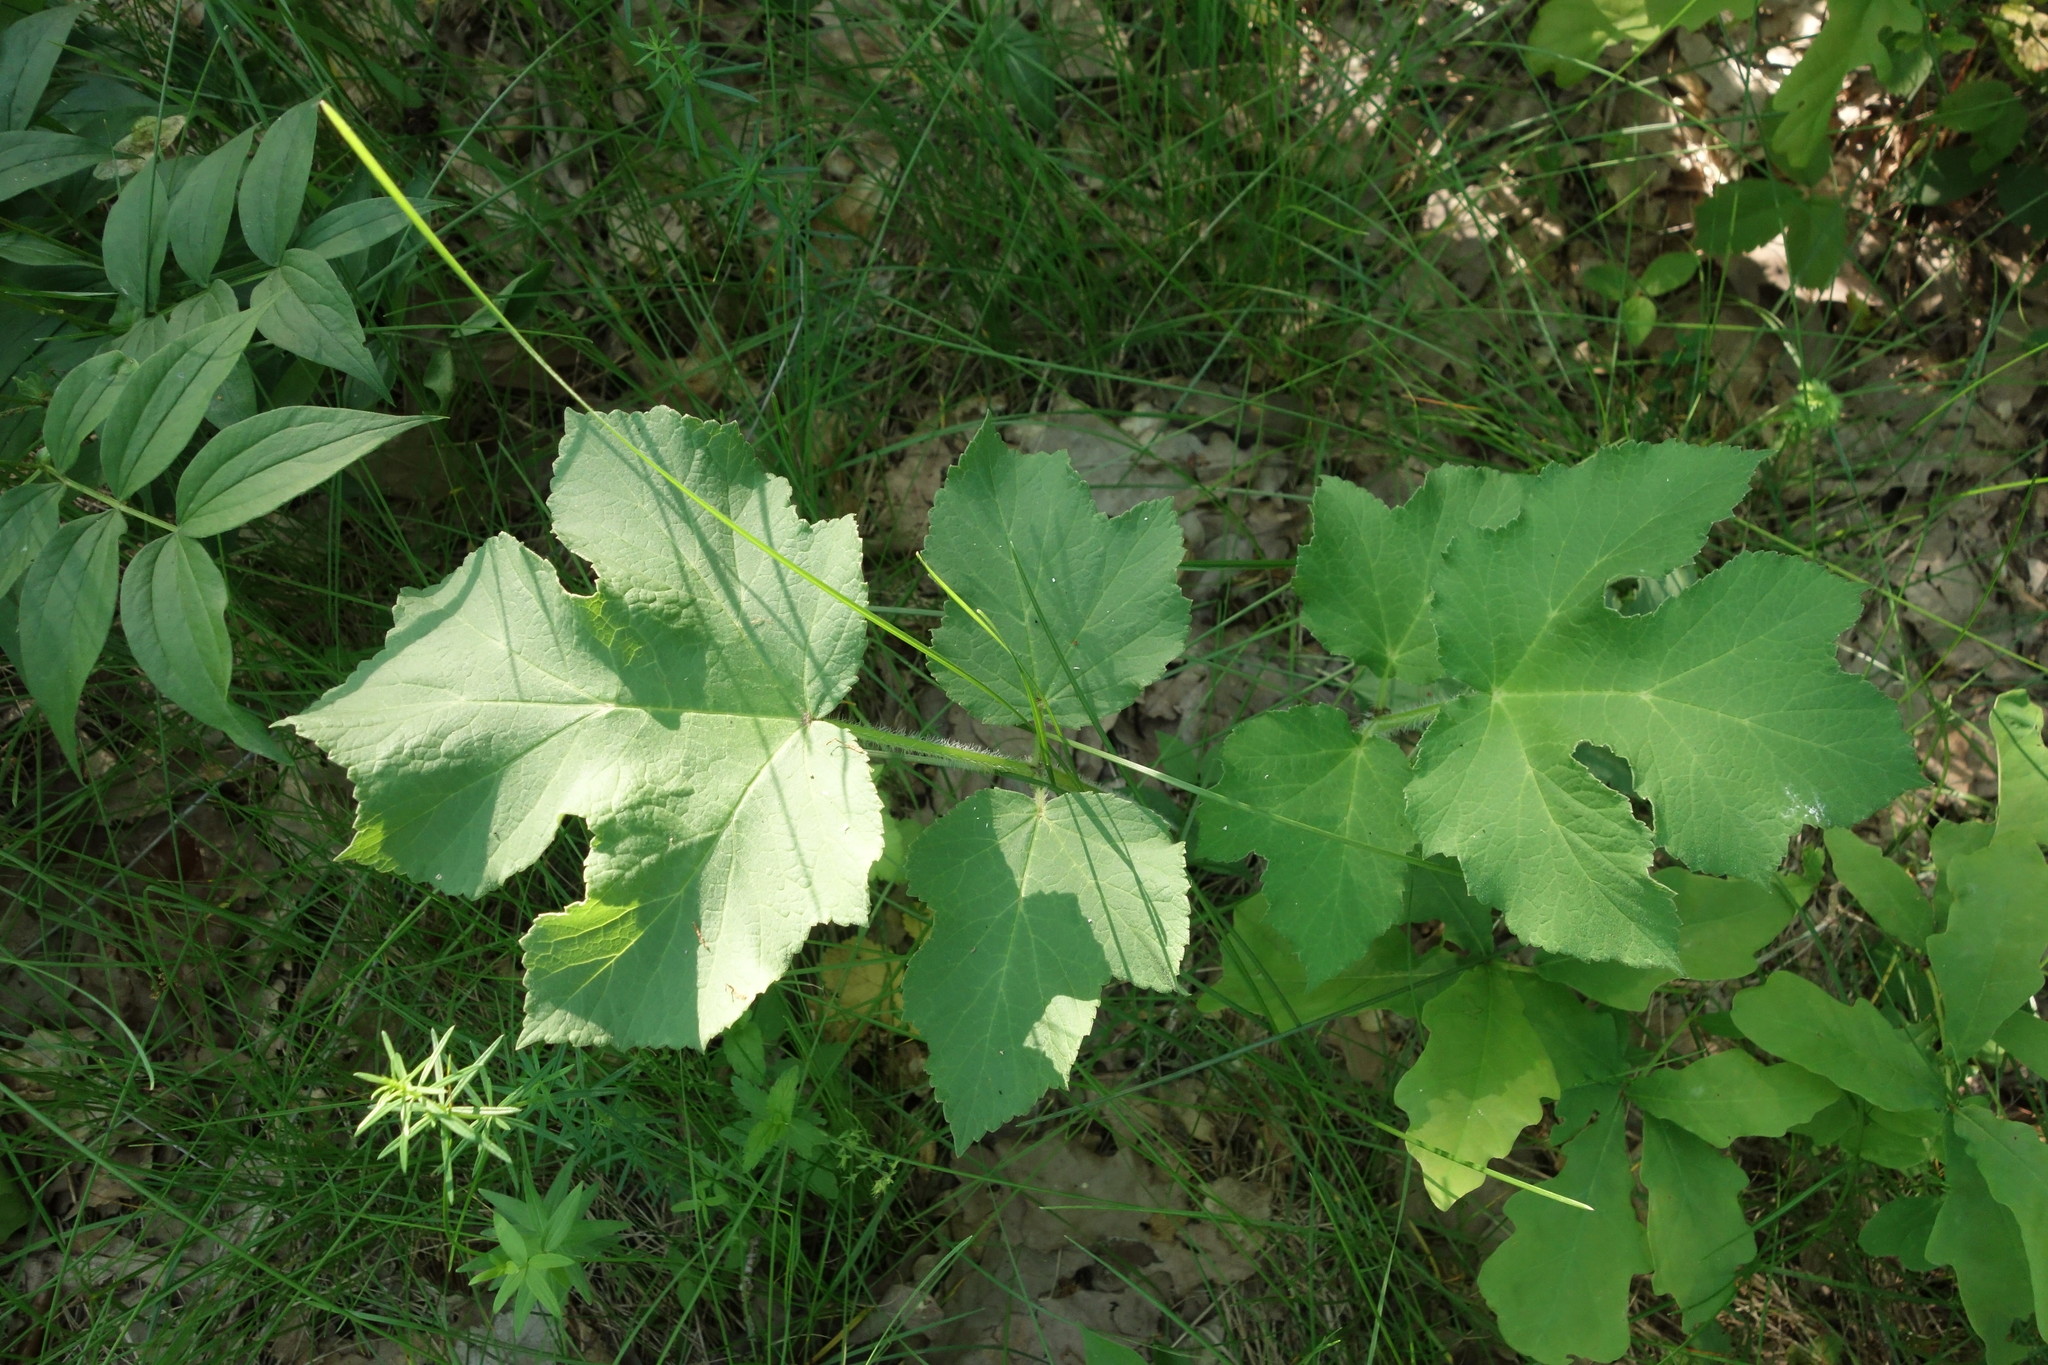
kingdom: Plantae
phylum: Tracheophyta
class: Magnoliopsida
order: Apiales
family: Apiaceae
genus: Heracleum
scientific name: Heracleum sphondylium
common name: Hogweed
